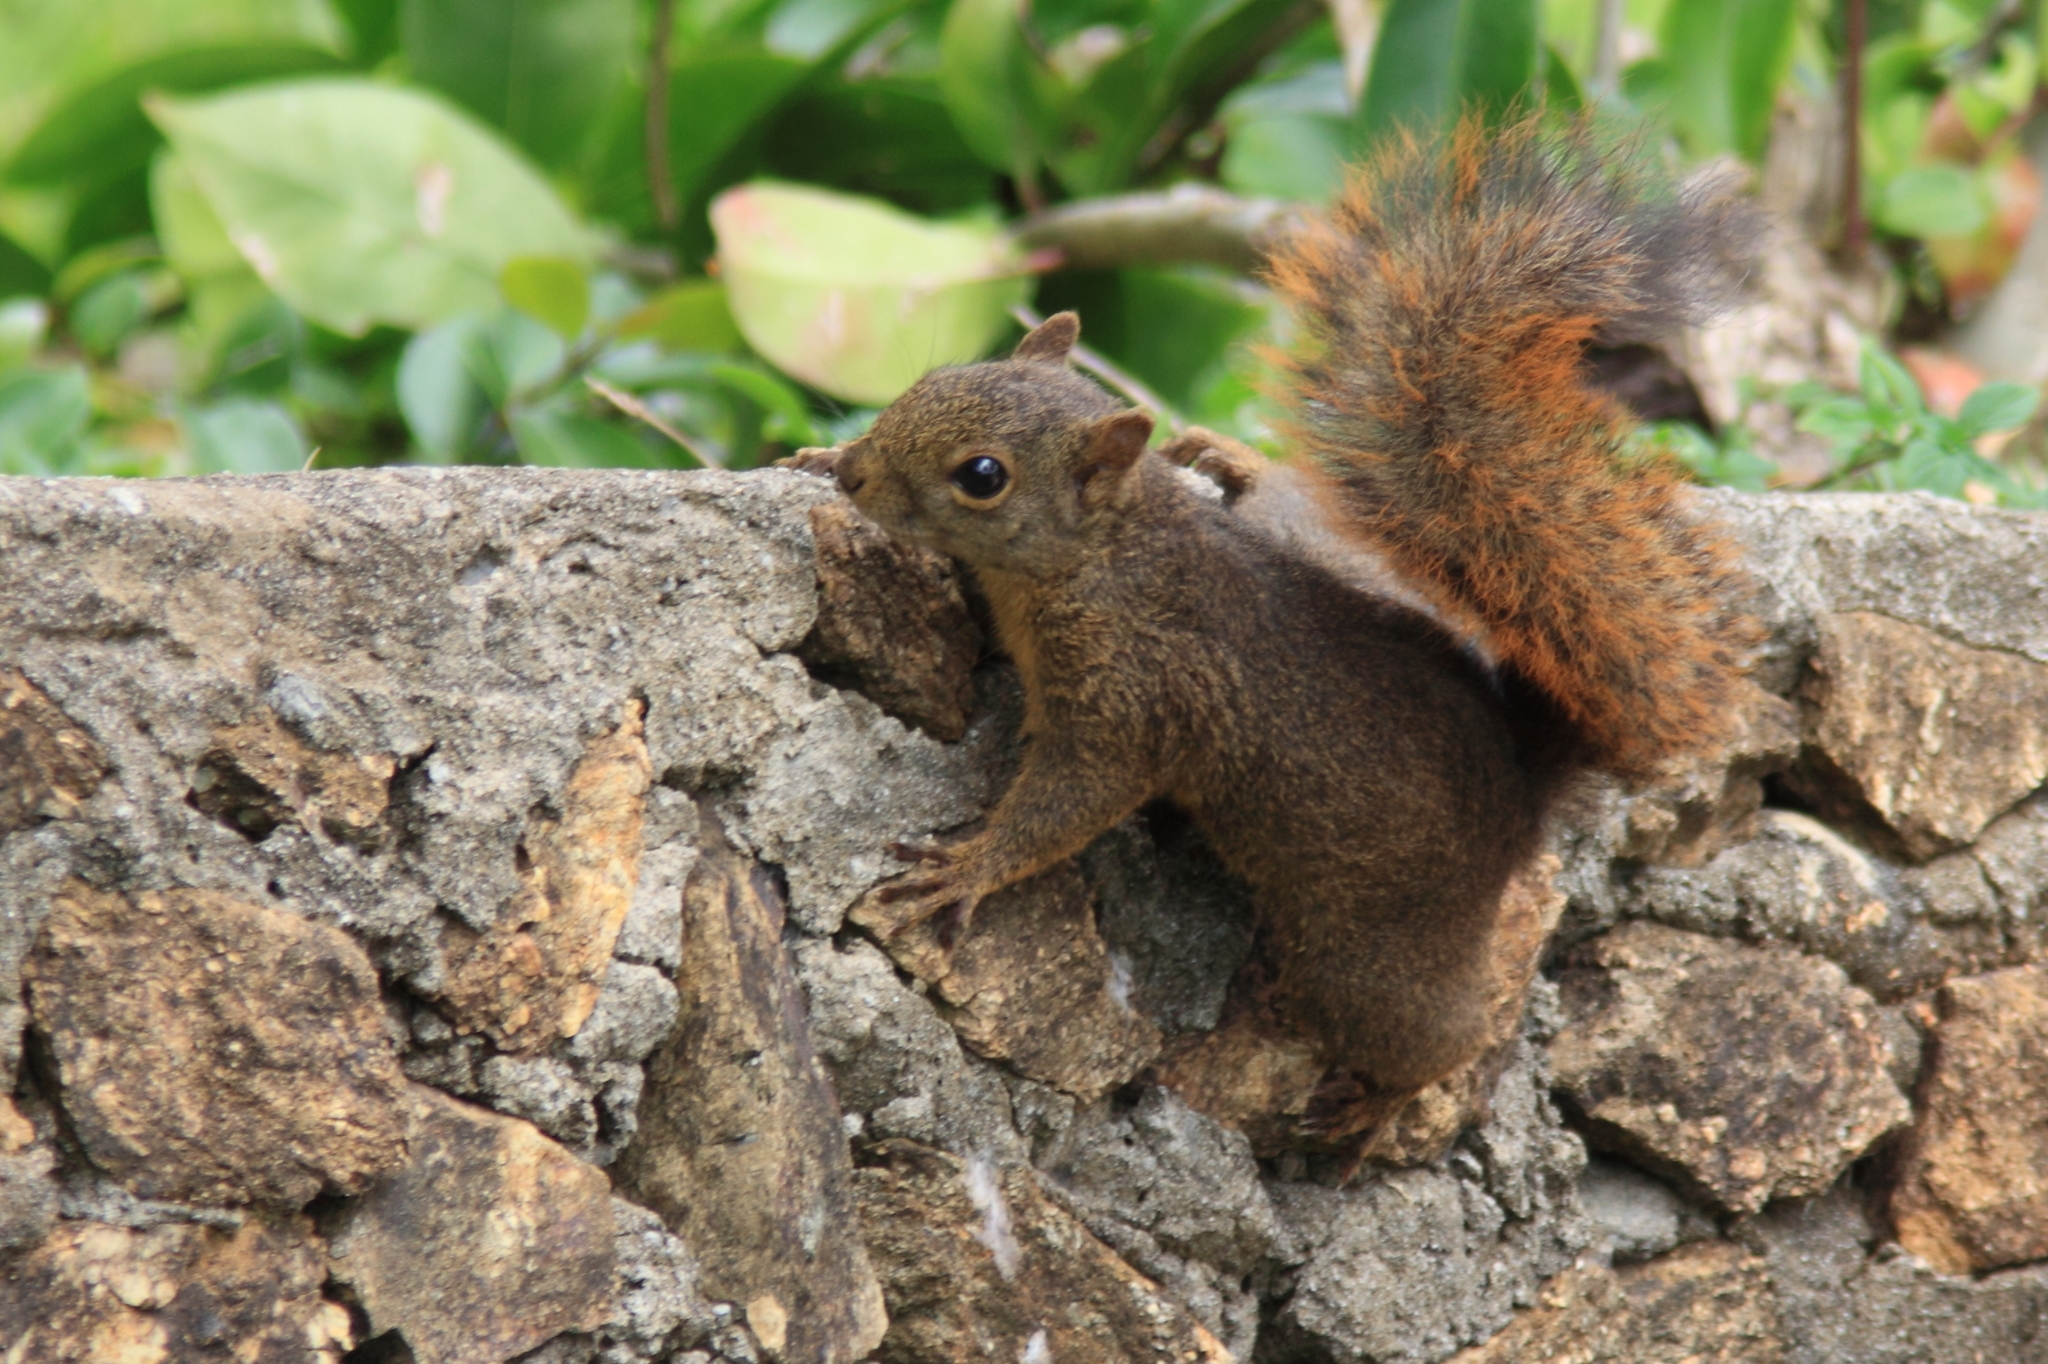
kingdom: Animalia
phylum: Chordata
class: Mammalia
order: Rodentia
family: Sciuridae
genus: Sciurus
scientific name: Sciurus granatensis
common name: Red-tailed squirrel
